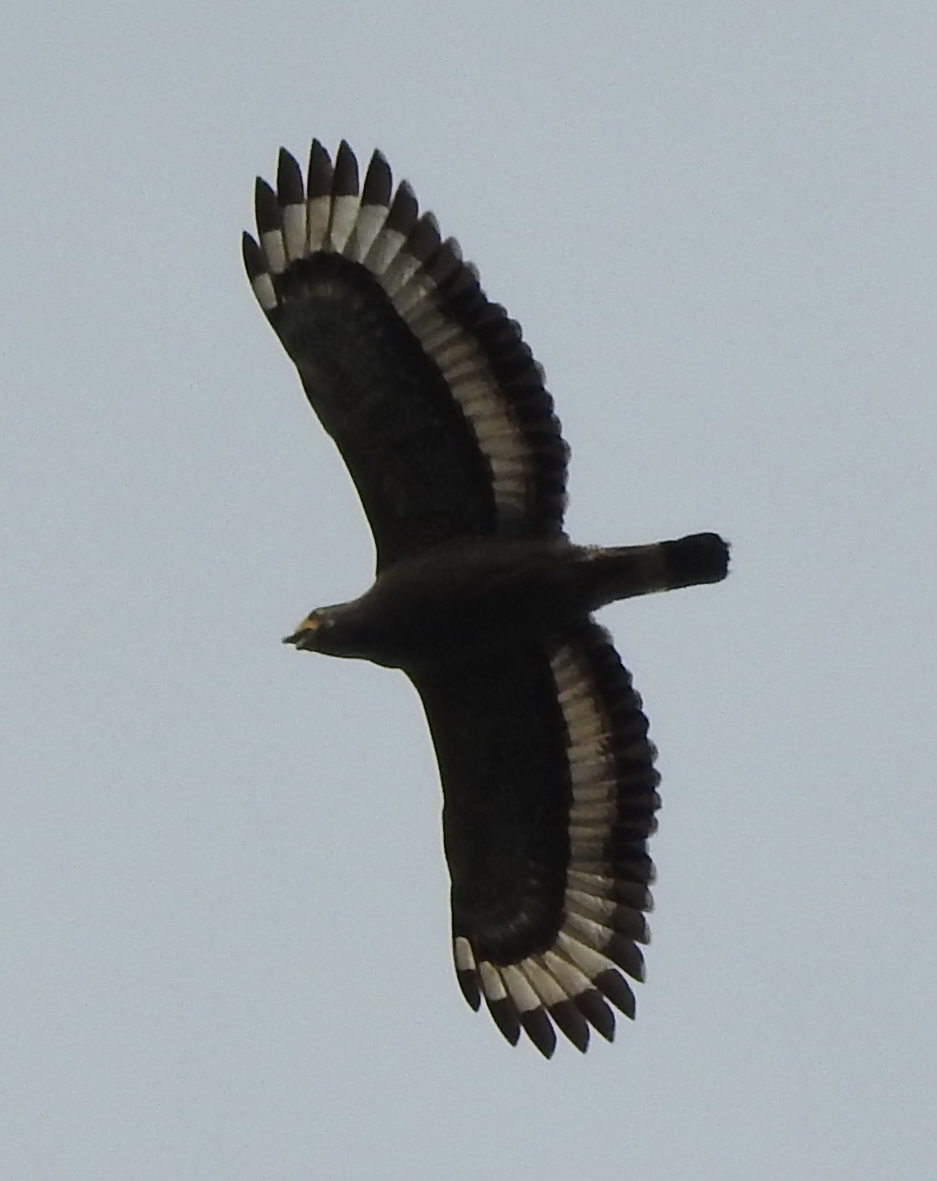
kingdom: Animalia
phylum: Chordata
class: Aves
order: Accipitriformes
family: Accipitridae
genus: Spilornis
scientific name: Spilornis cheela
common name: Crested serpent eagle
